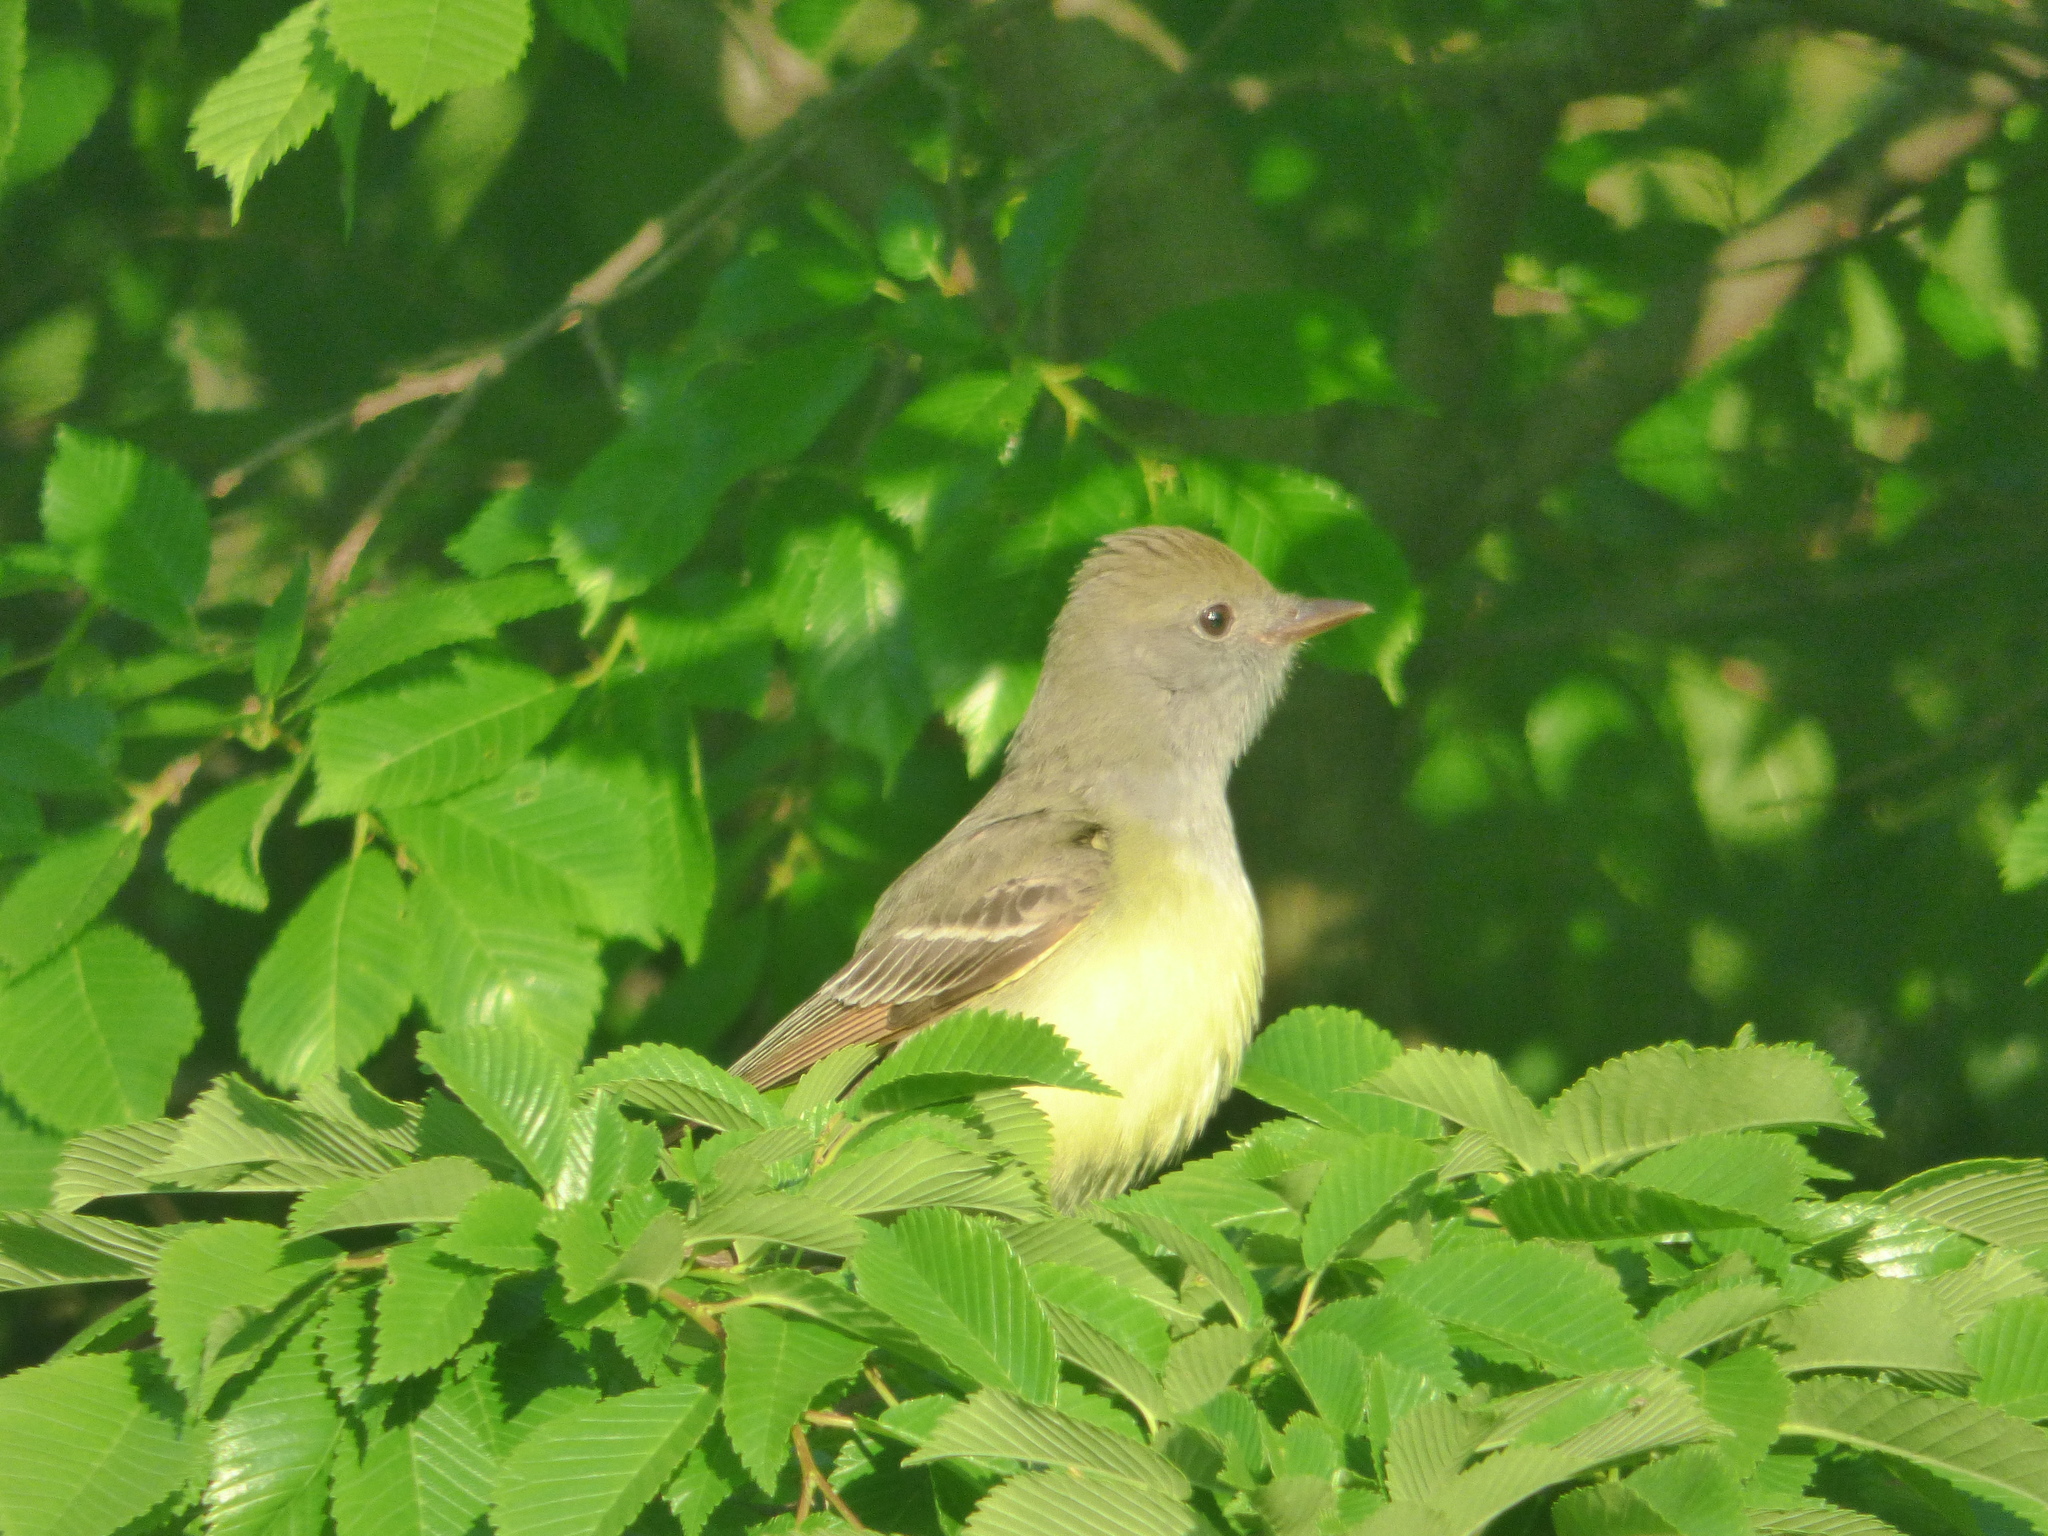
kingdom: Animalia
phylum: Chordata
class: Aves
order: Passeriformes
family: Tyrannidae
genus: Myiarchus
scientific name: Myiarchus crinitus
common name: Great crested flycatcher
